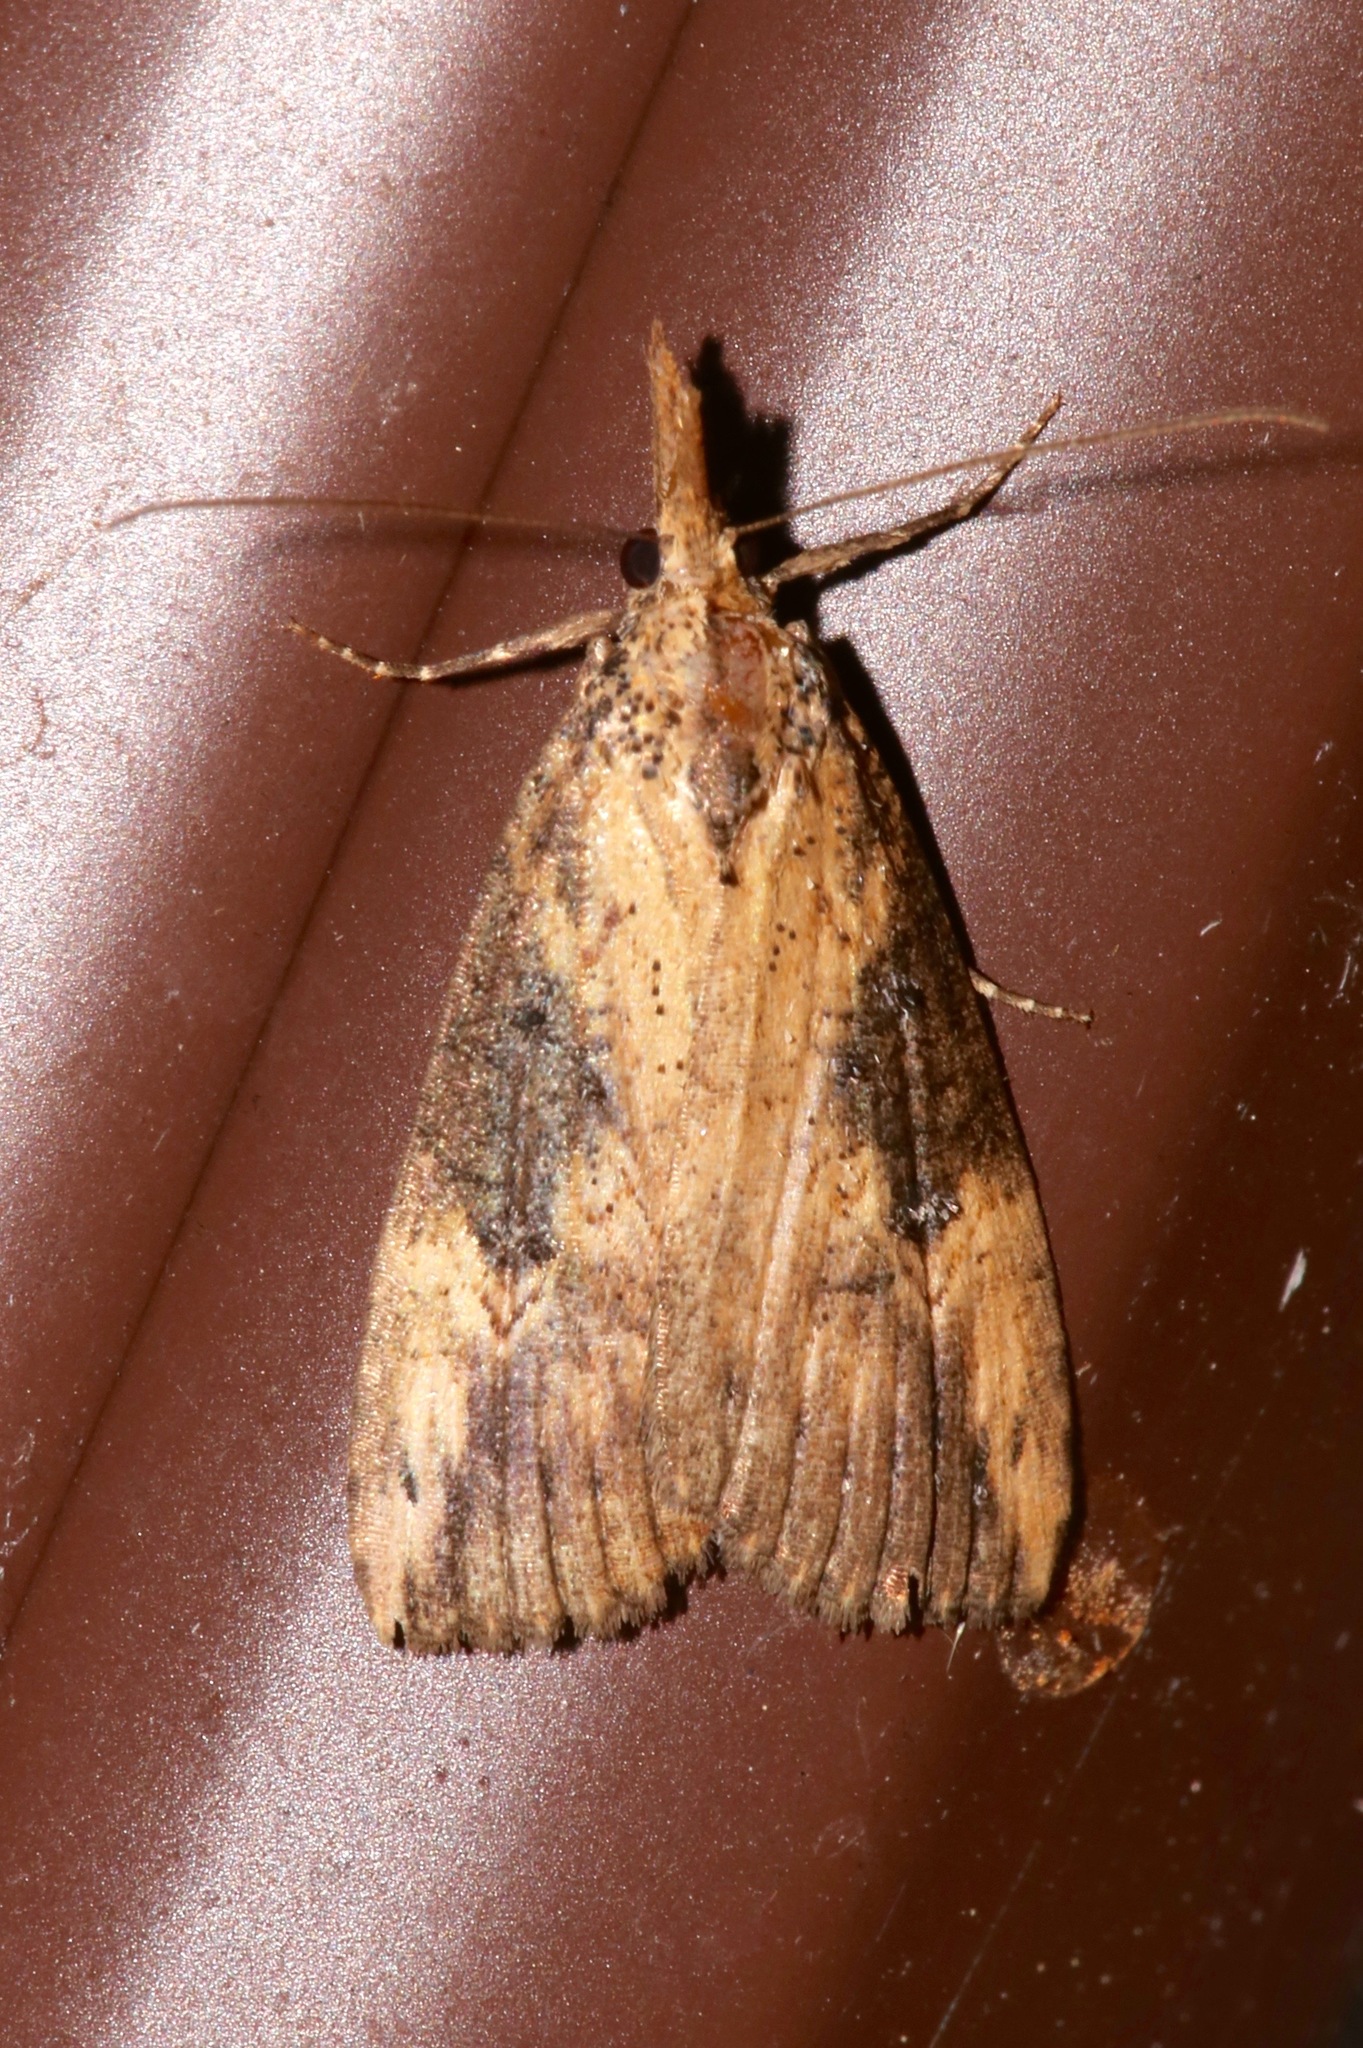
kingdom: Animalia
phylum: Arthropoda
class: Insecta
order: Lepidoptera
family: Erebidae
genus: Hypena
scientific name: Hypena humuli
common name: Hop vine snout
